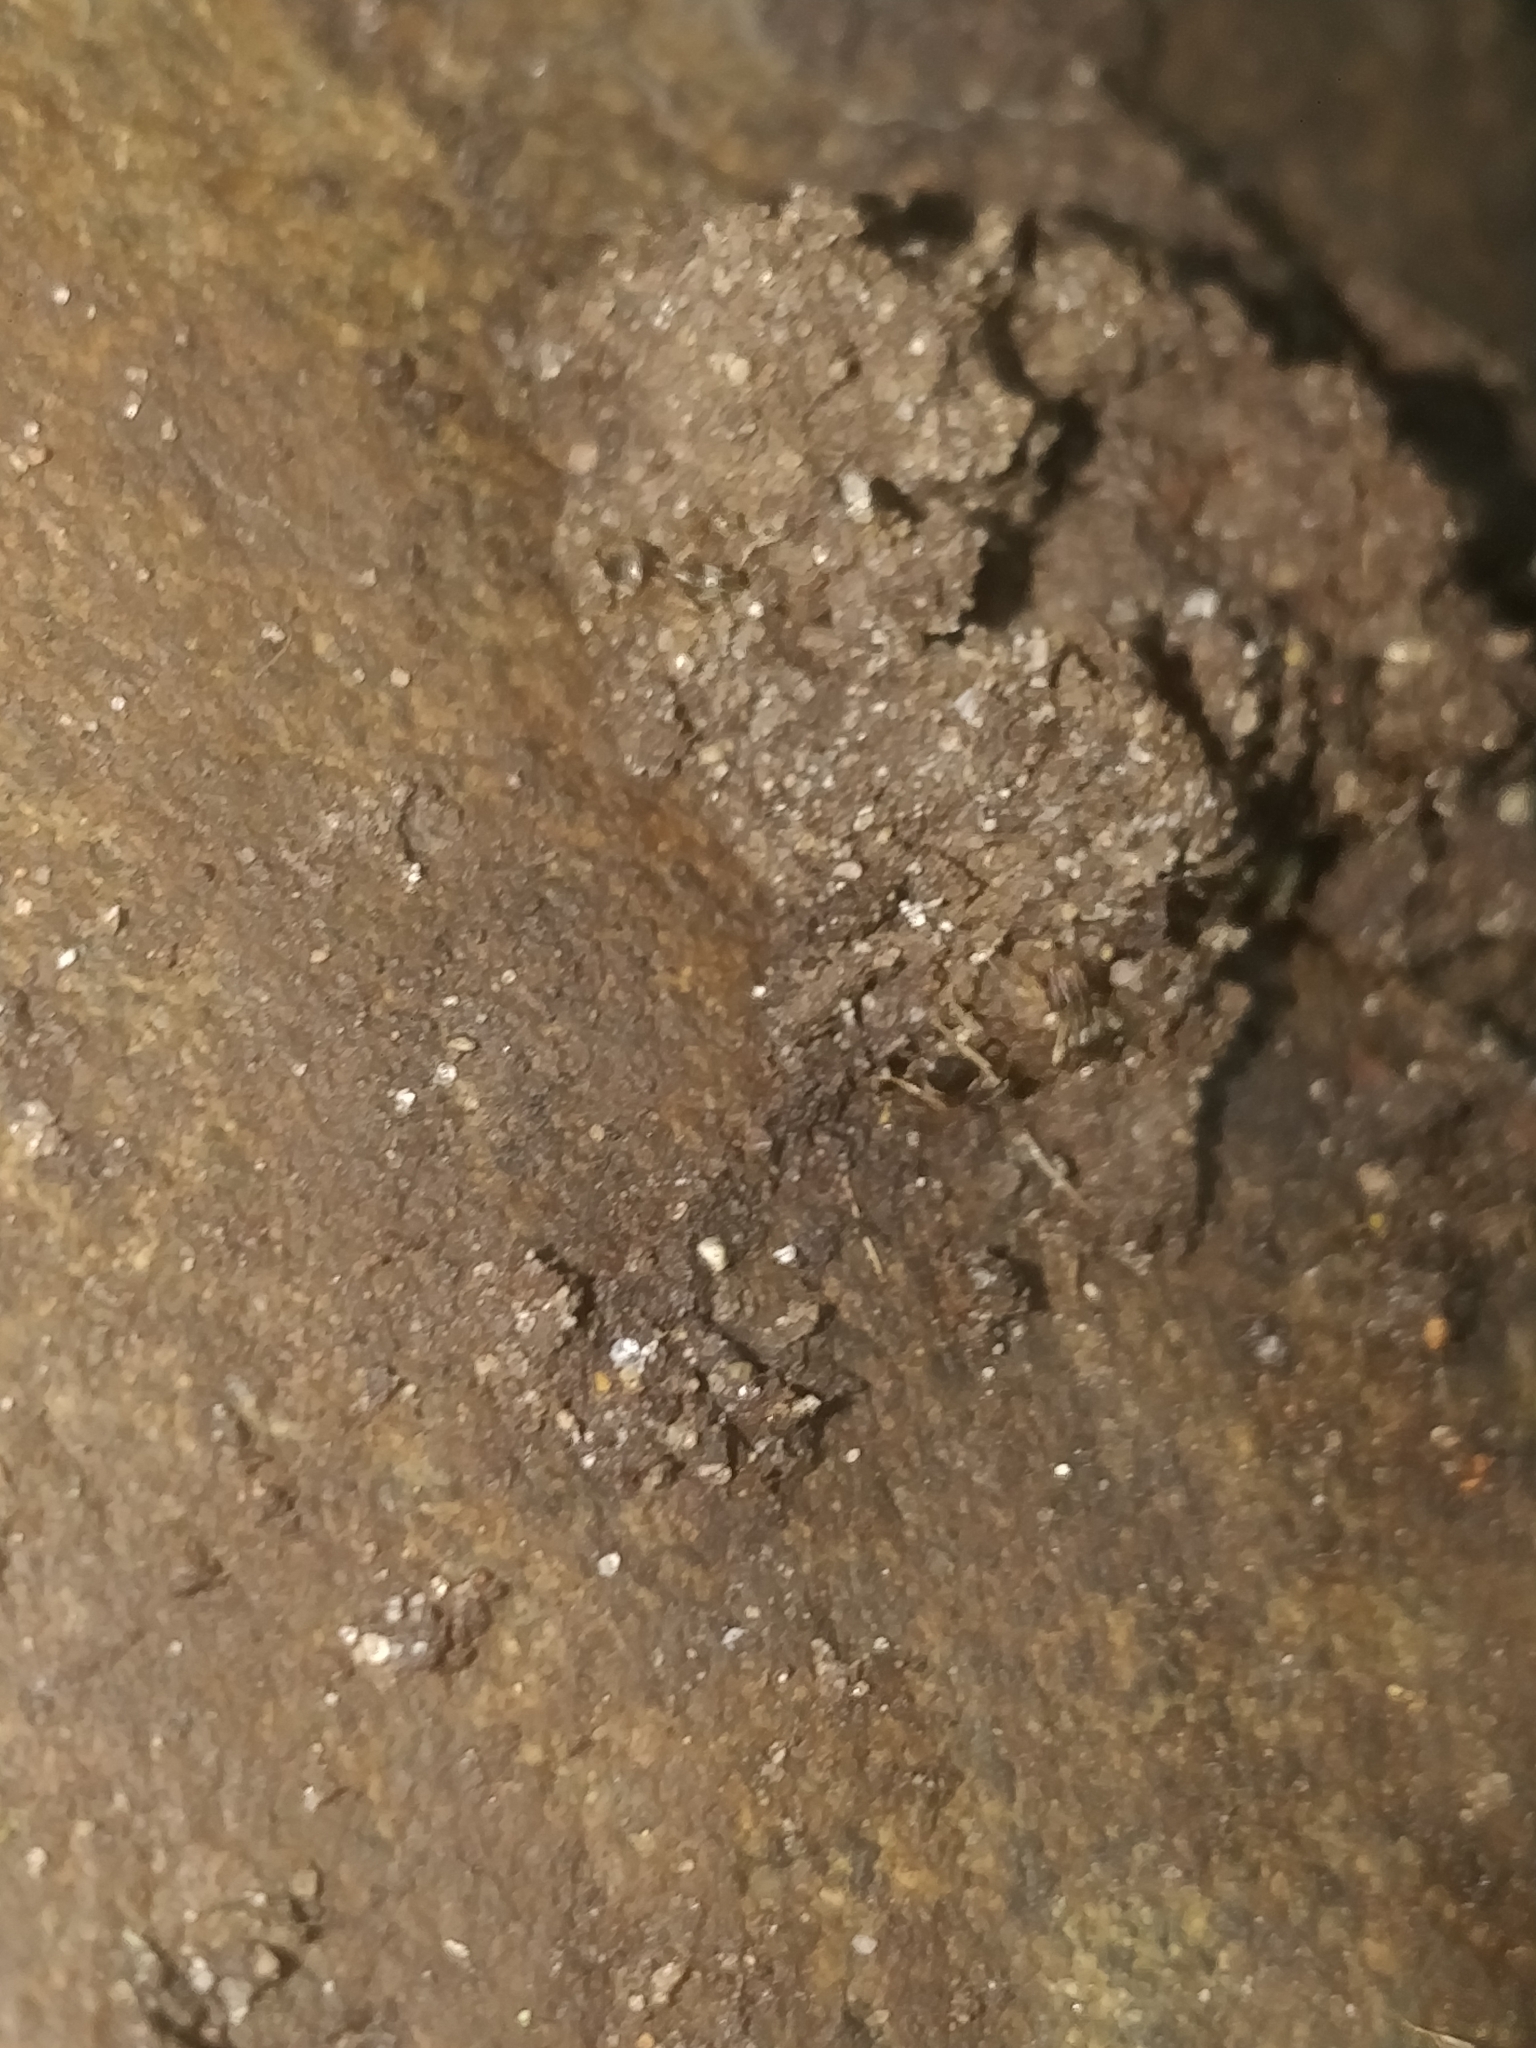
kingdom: Animalia
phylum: Arthropoda
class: Insecta
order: Hymenoptera
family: Formicidae
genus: Lasius
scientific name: Lasius americanus
